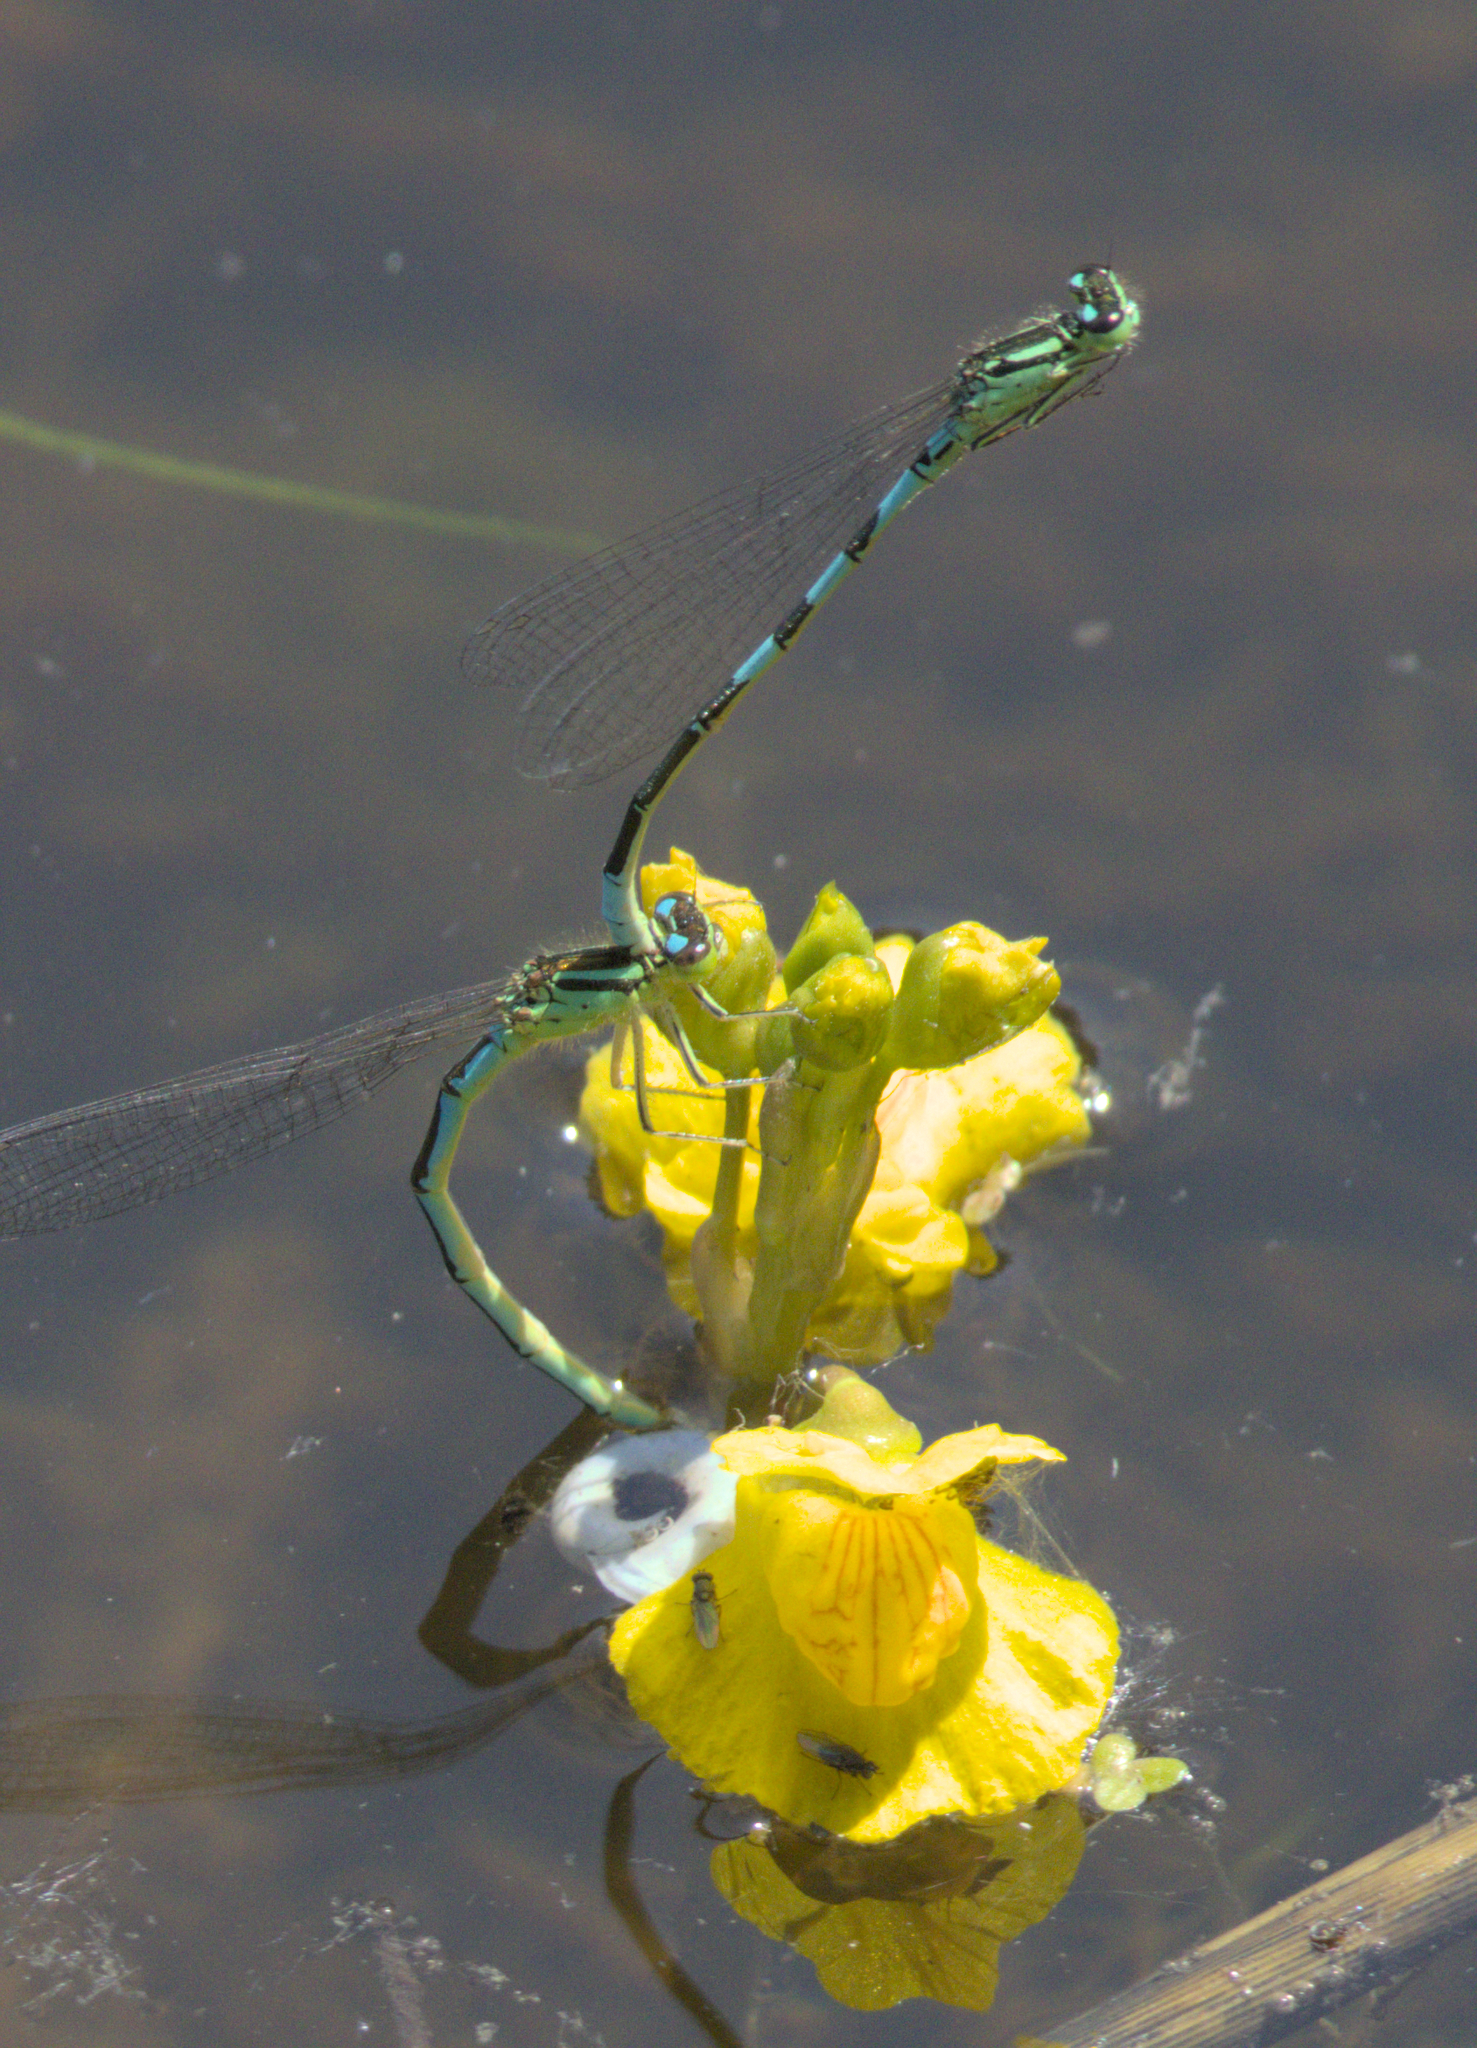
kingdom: Animalia
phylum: Arthropoda
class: Insecta
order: Odonata
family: Coenagrionidae
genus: Coenagrion
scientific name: Coenagrion resolutum
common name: Taiga bluet
